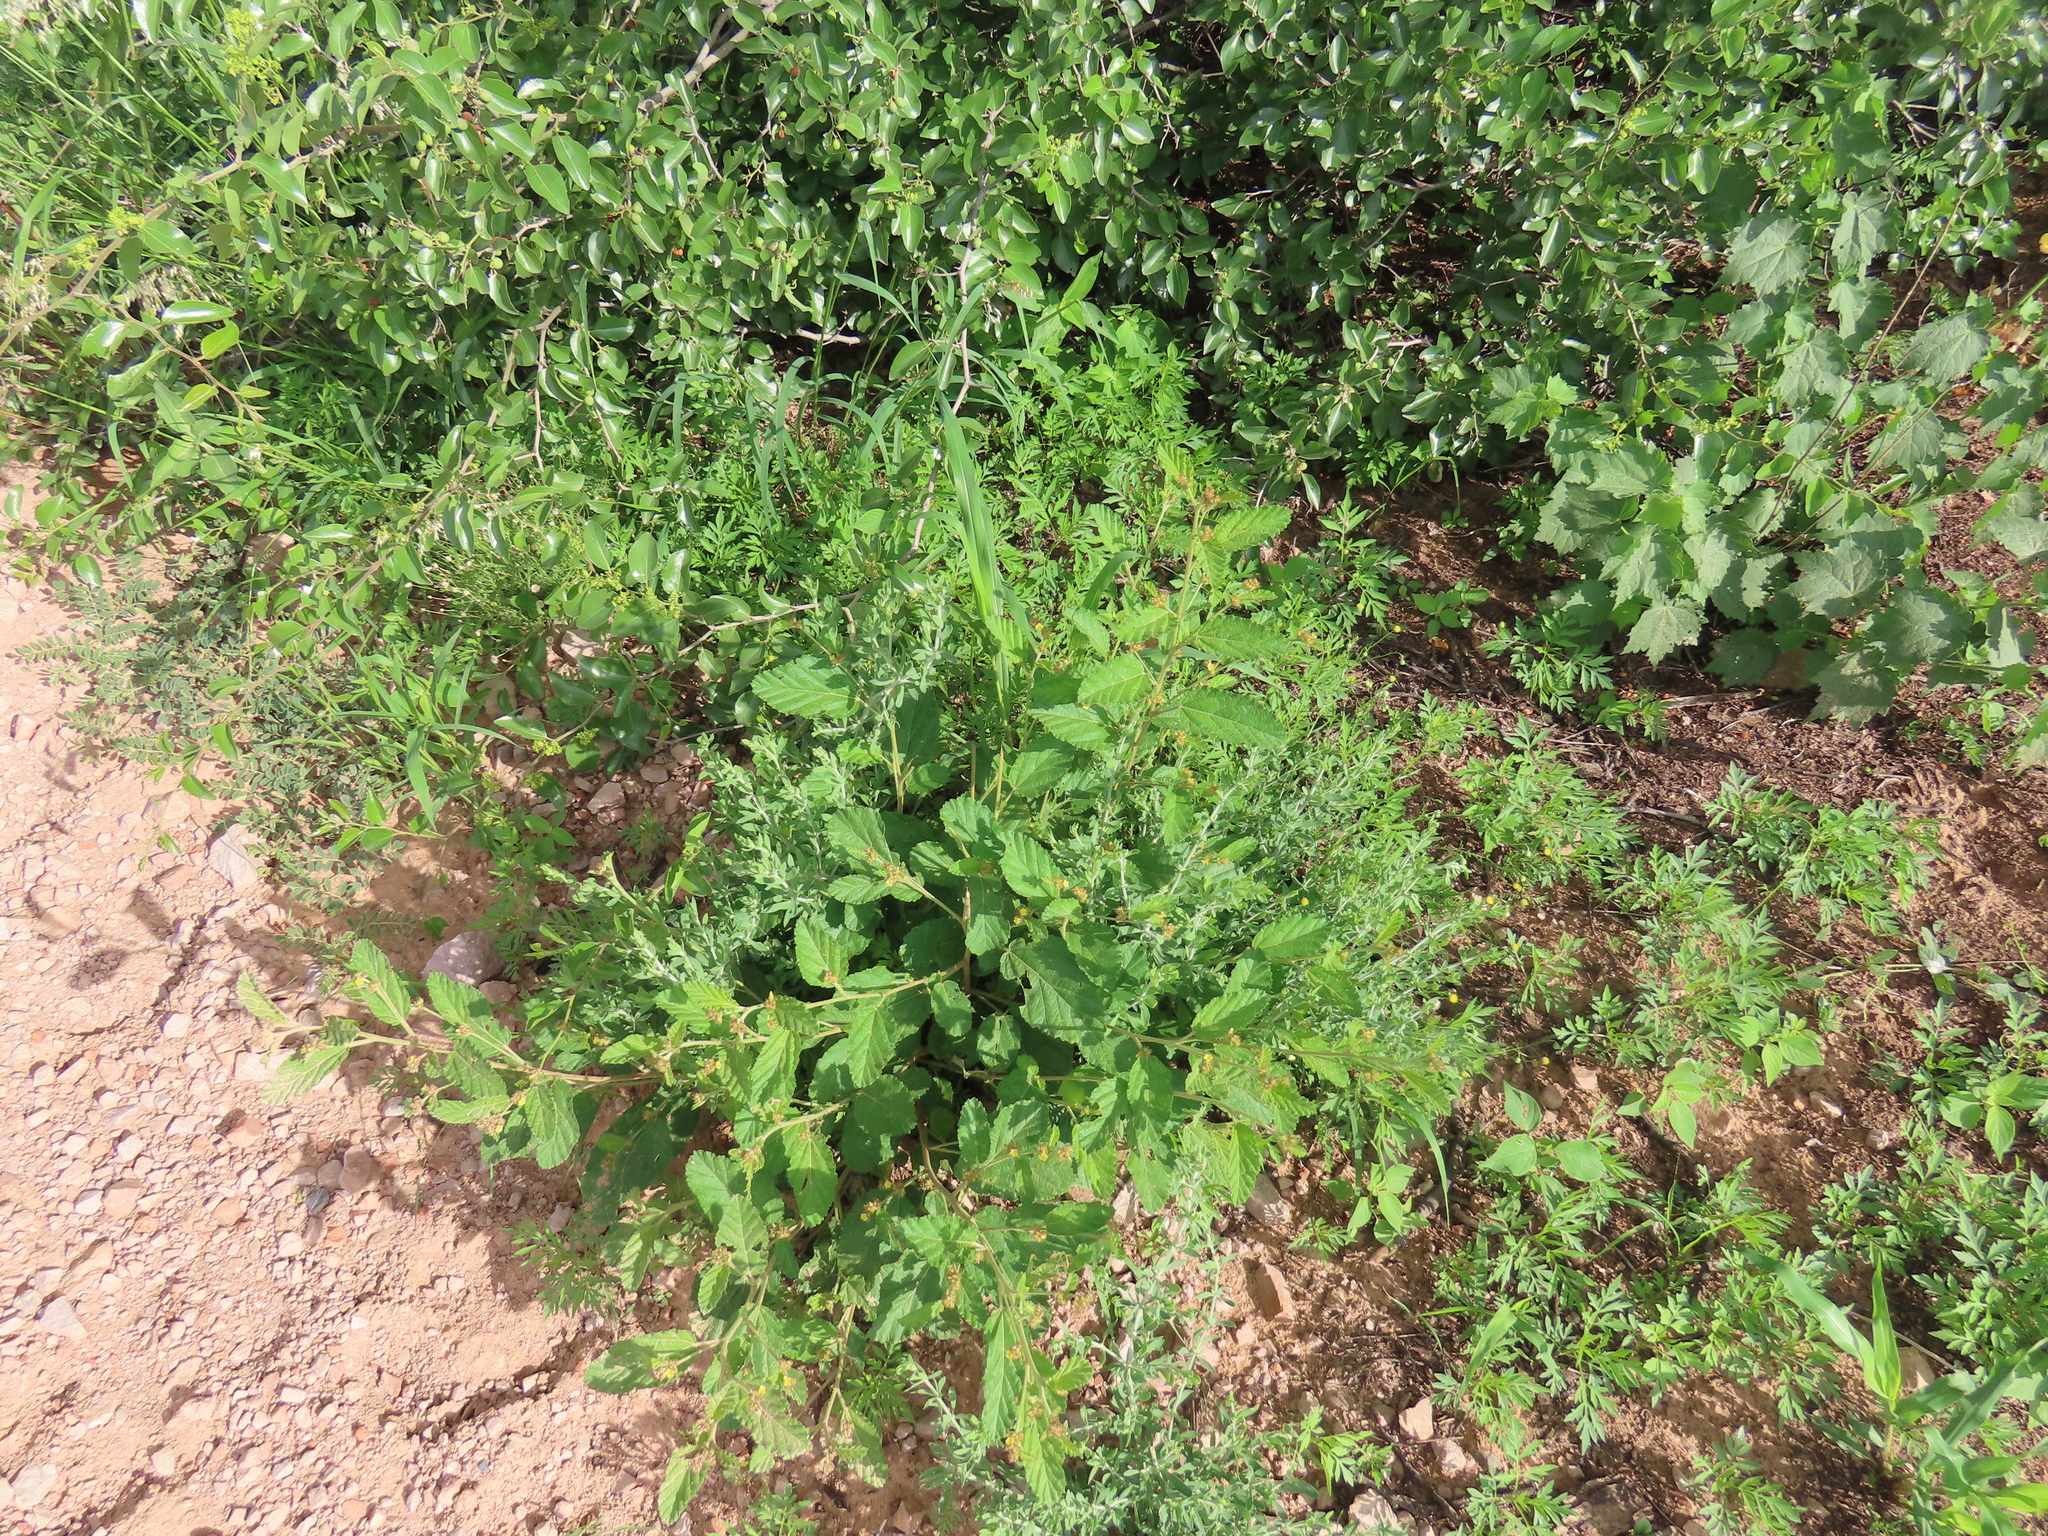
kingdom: Plantae
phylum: Tracheophyta
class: Magnoliopsida
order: Malvales
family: Malvaceae
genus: Waltheria
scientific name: Waltheria indica
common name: Leather-coat
